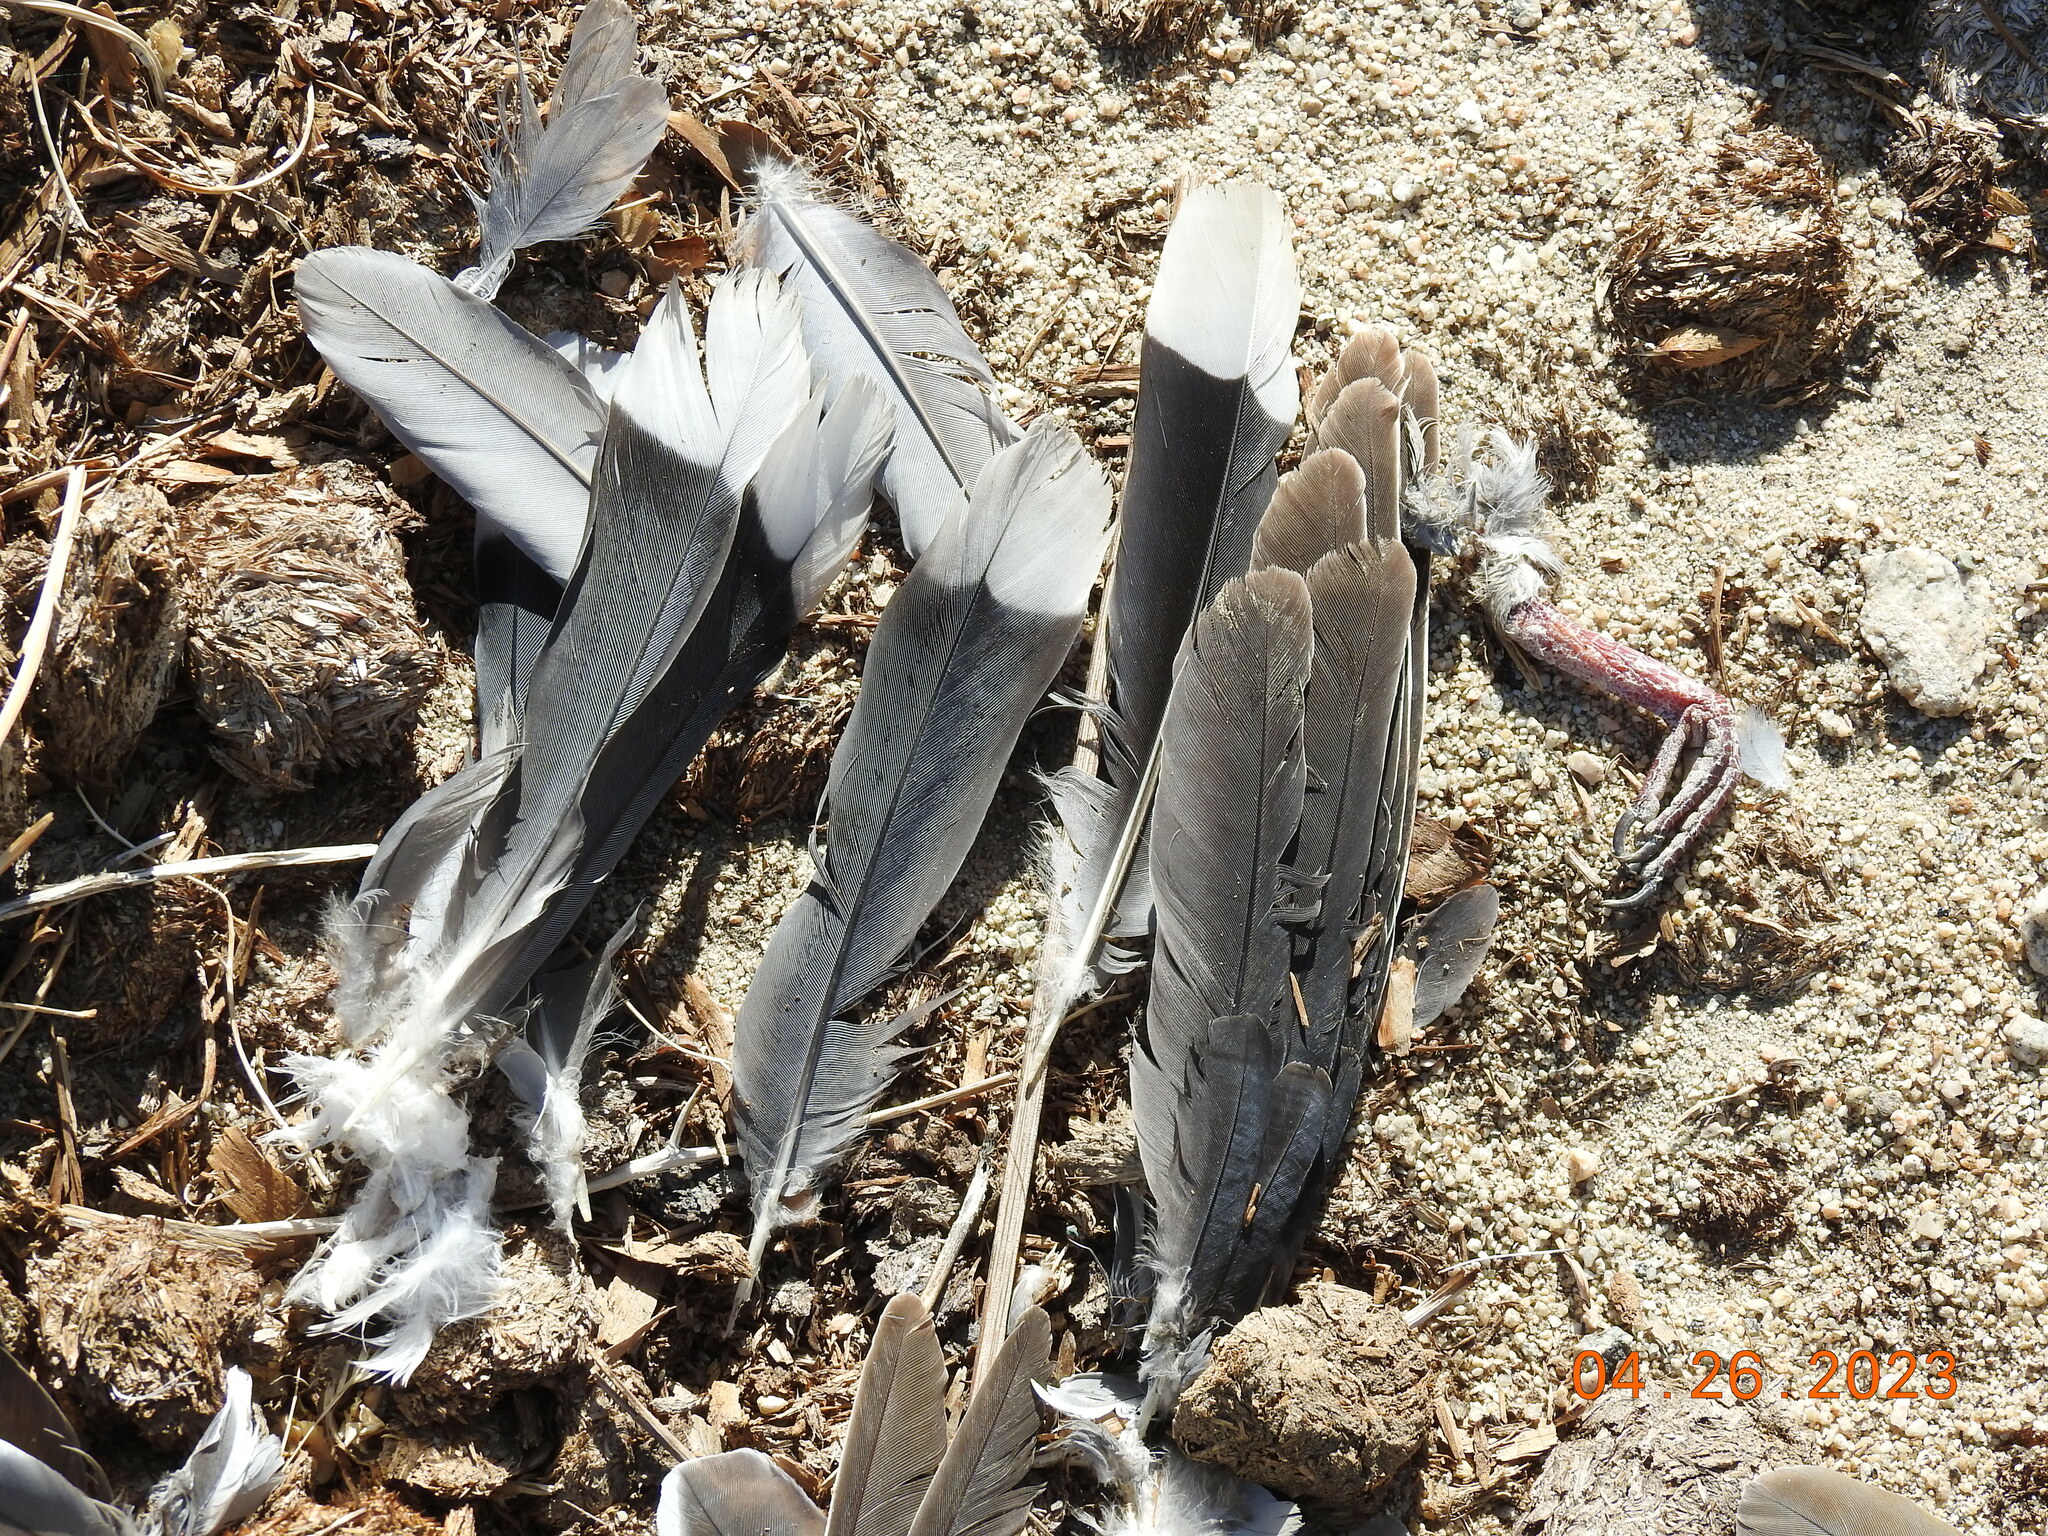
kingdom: Animalia
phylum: Chordata
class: Aves
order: Columbiformes
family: Columbidae
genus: Zenaida
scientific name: Zenaida asiatica
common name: White-winged dove
